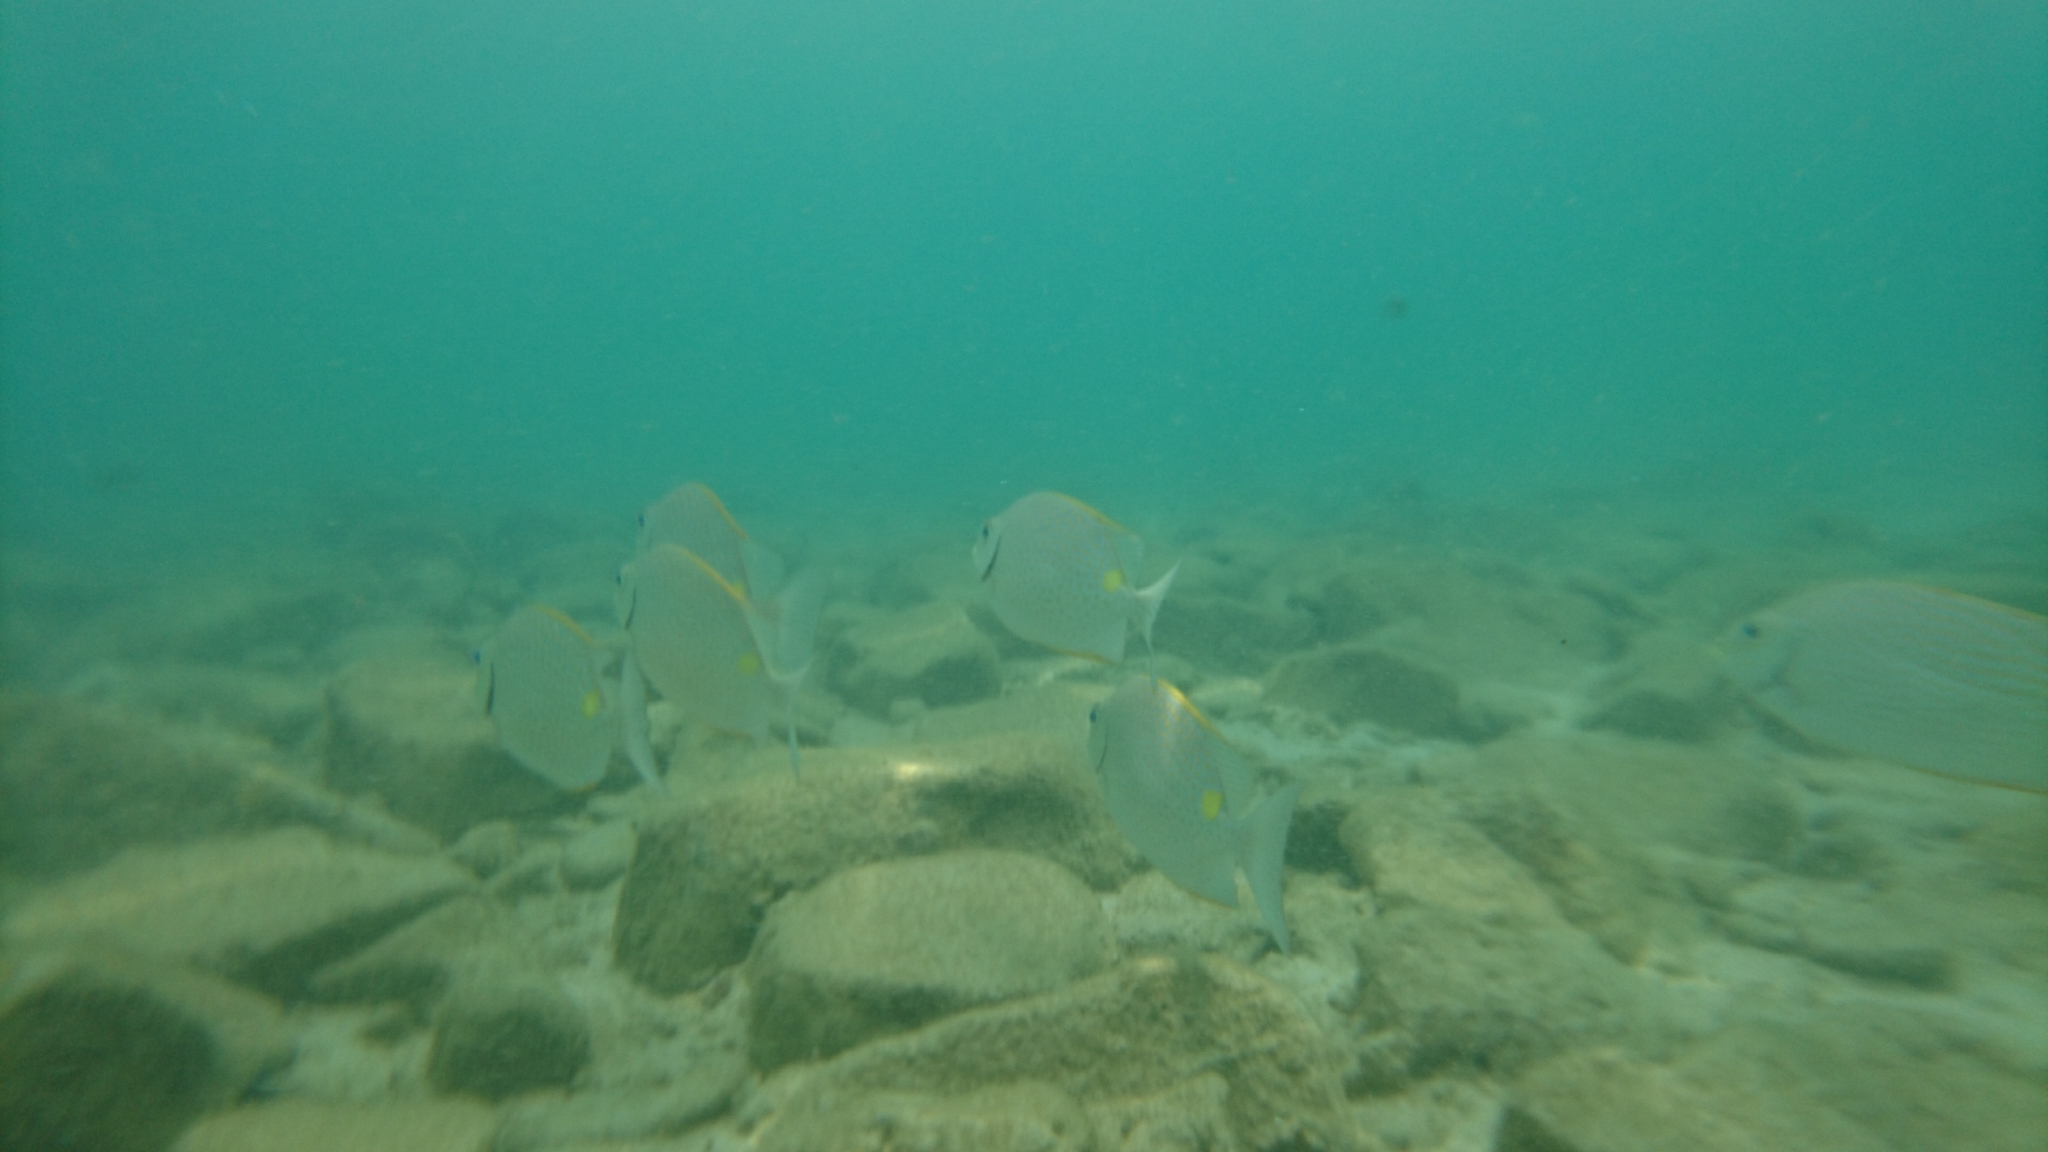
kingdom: Animalia
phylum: Chordata
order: Perciformes
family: Siganidae
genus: Siganus
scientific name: Siganus guttatus
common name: Golden rabbitfish
